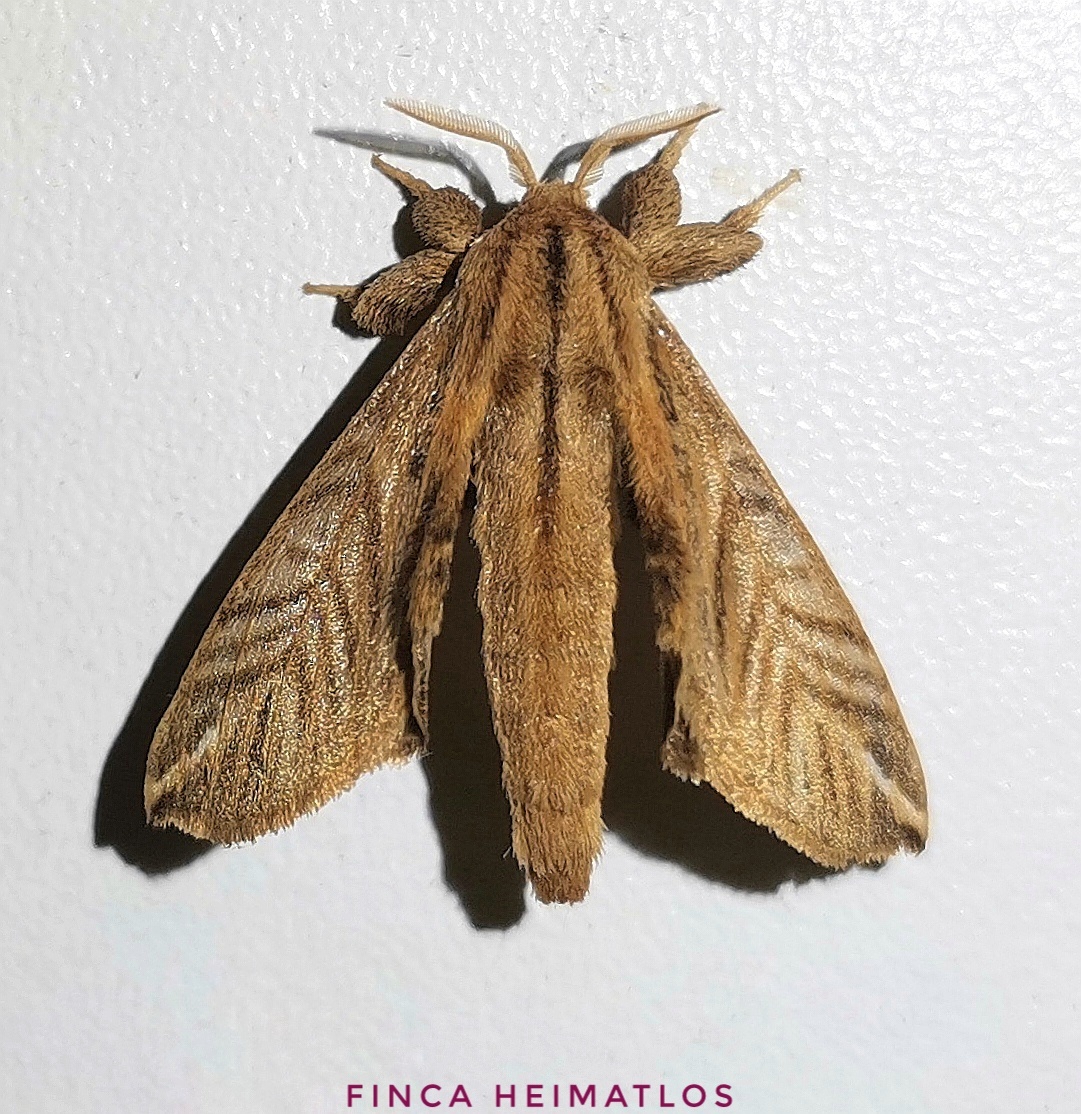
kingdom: Animalia
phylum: Arthropoda
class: Insecta
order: Lepidoptera
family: Apatelodidae
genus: Hygrochroa
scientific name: Hygrochroa Apatelodes striata
